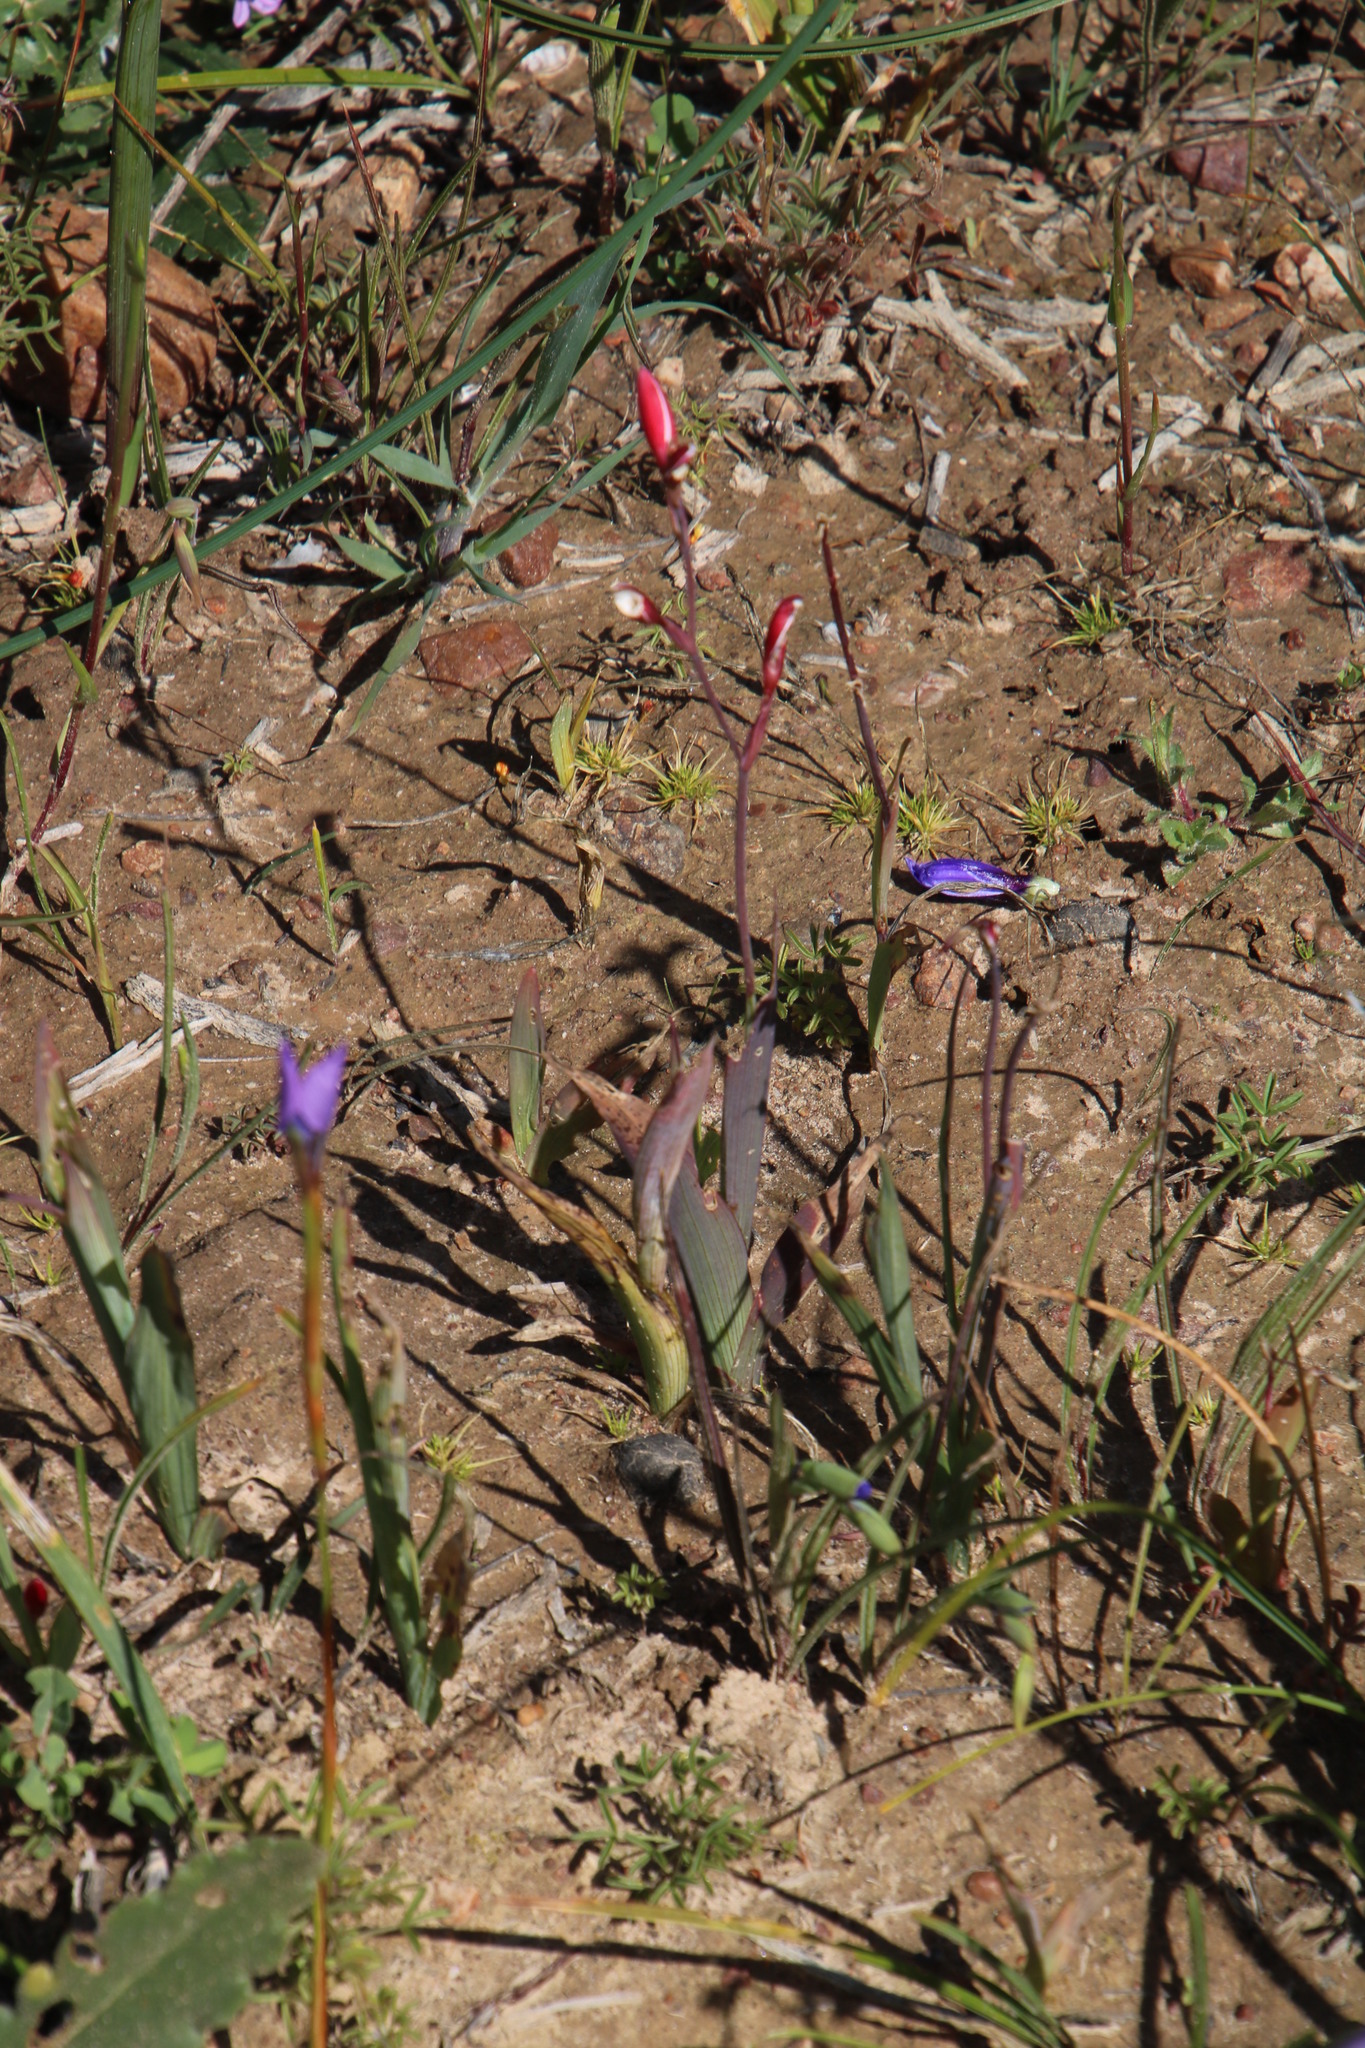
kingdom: Plantae
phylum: Tracheophyta
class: Liliopsida
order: Asparagales
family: Iridaceae
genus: Geissorhiza
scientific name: Geissorhiza splendidissima
